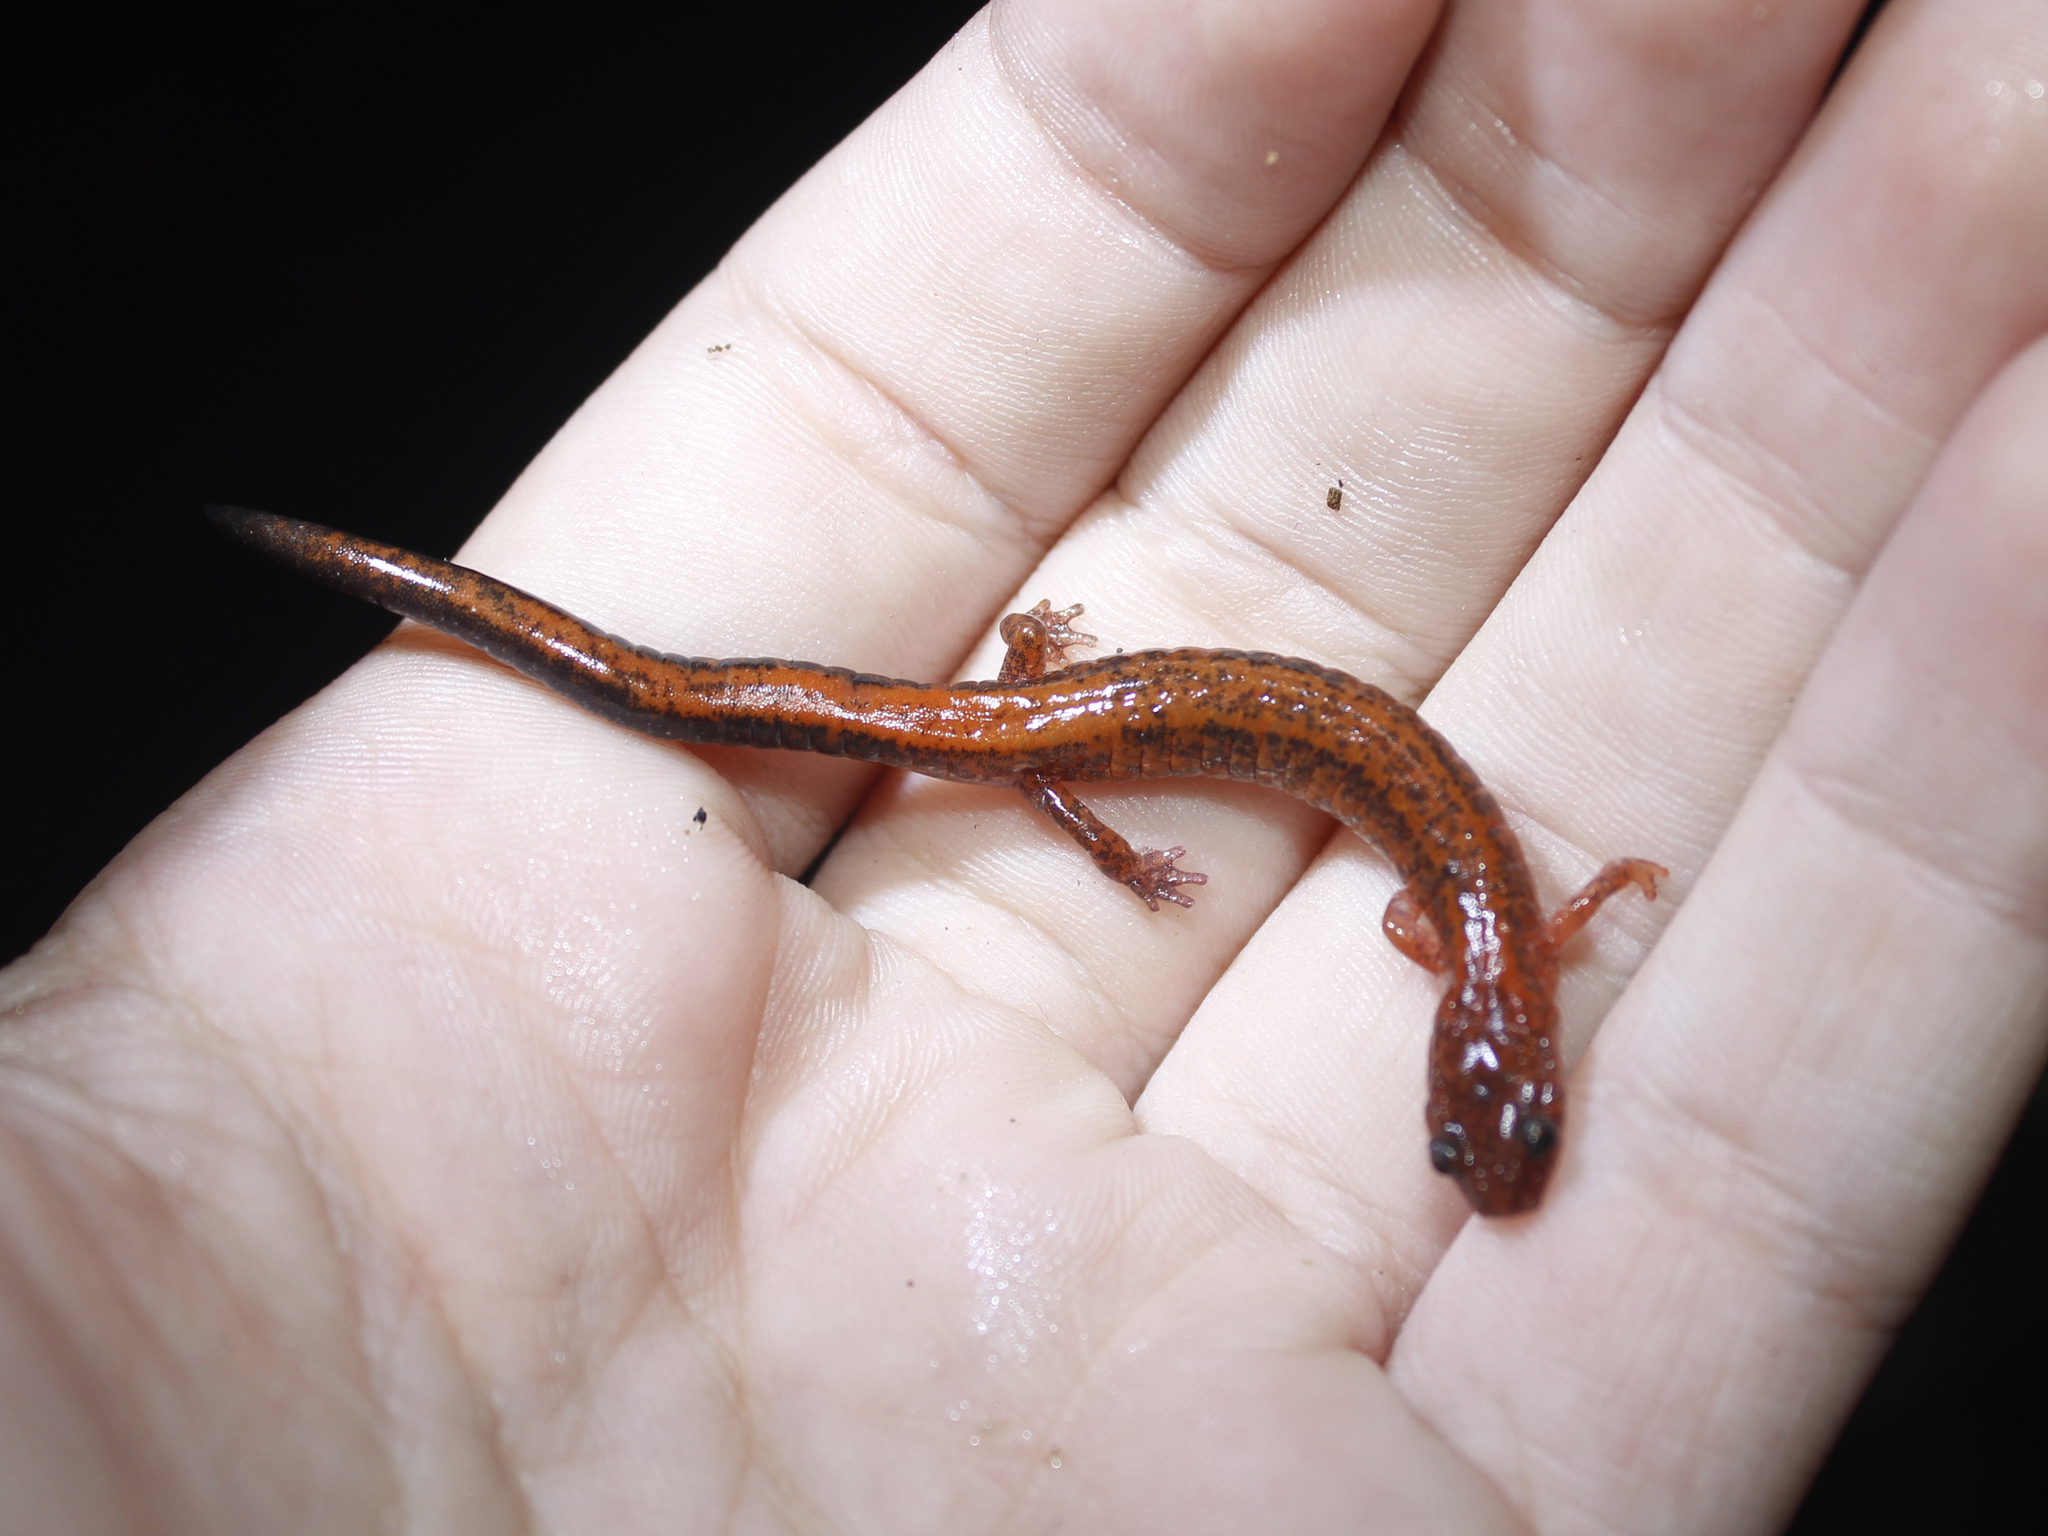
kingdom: Animalia
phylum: Chordata
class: Amphibia
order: Caudata
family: Plethodontidae
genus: Plethodon
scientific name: Plethodon cinereus
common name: Redback salamander
